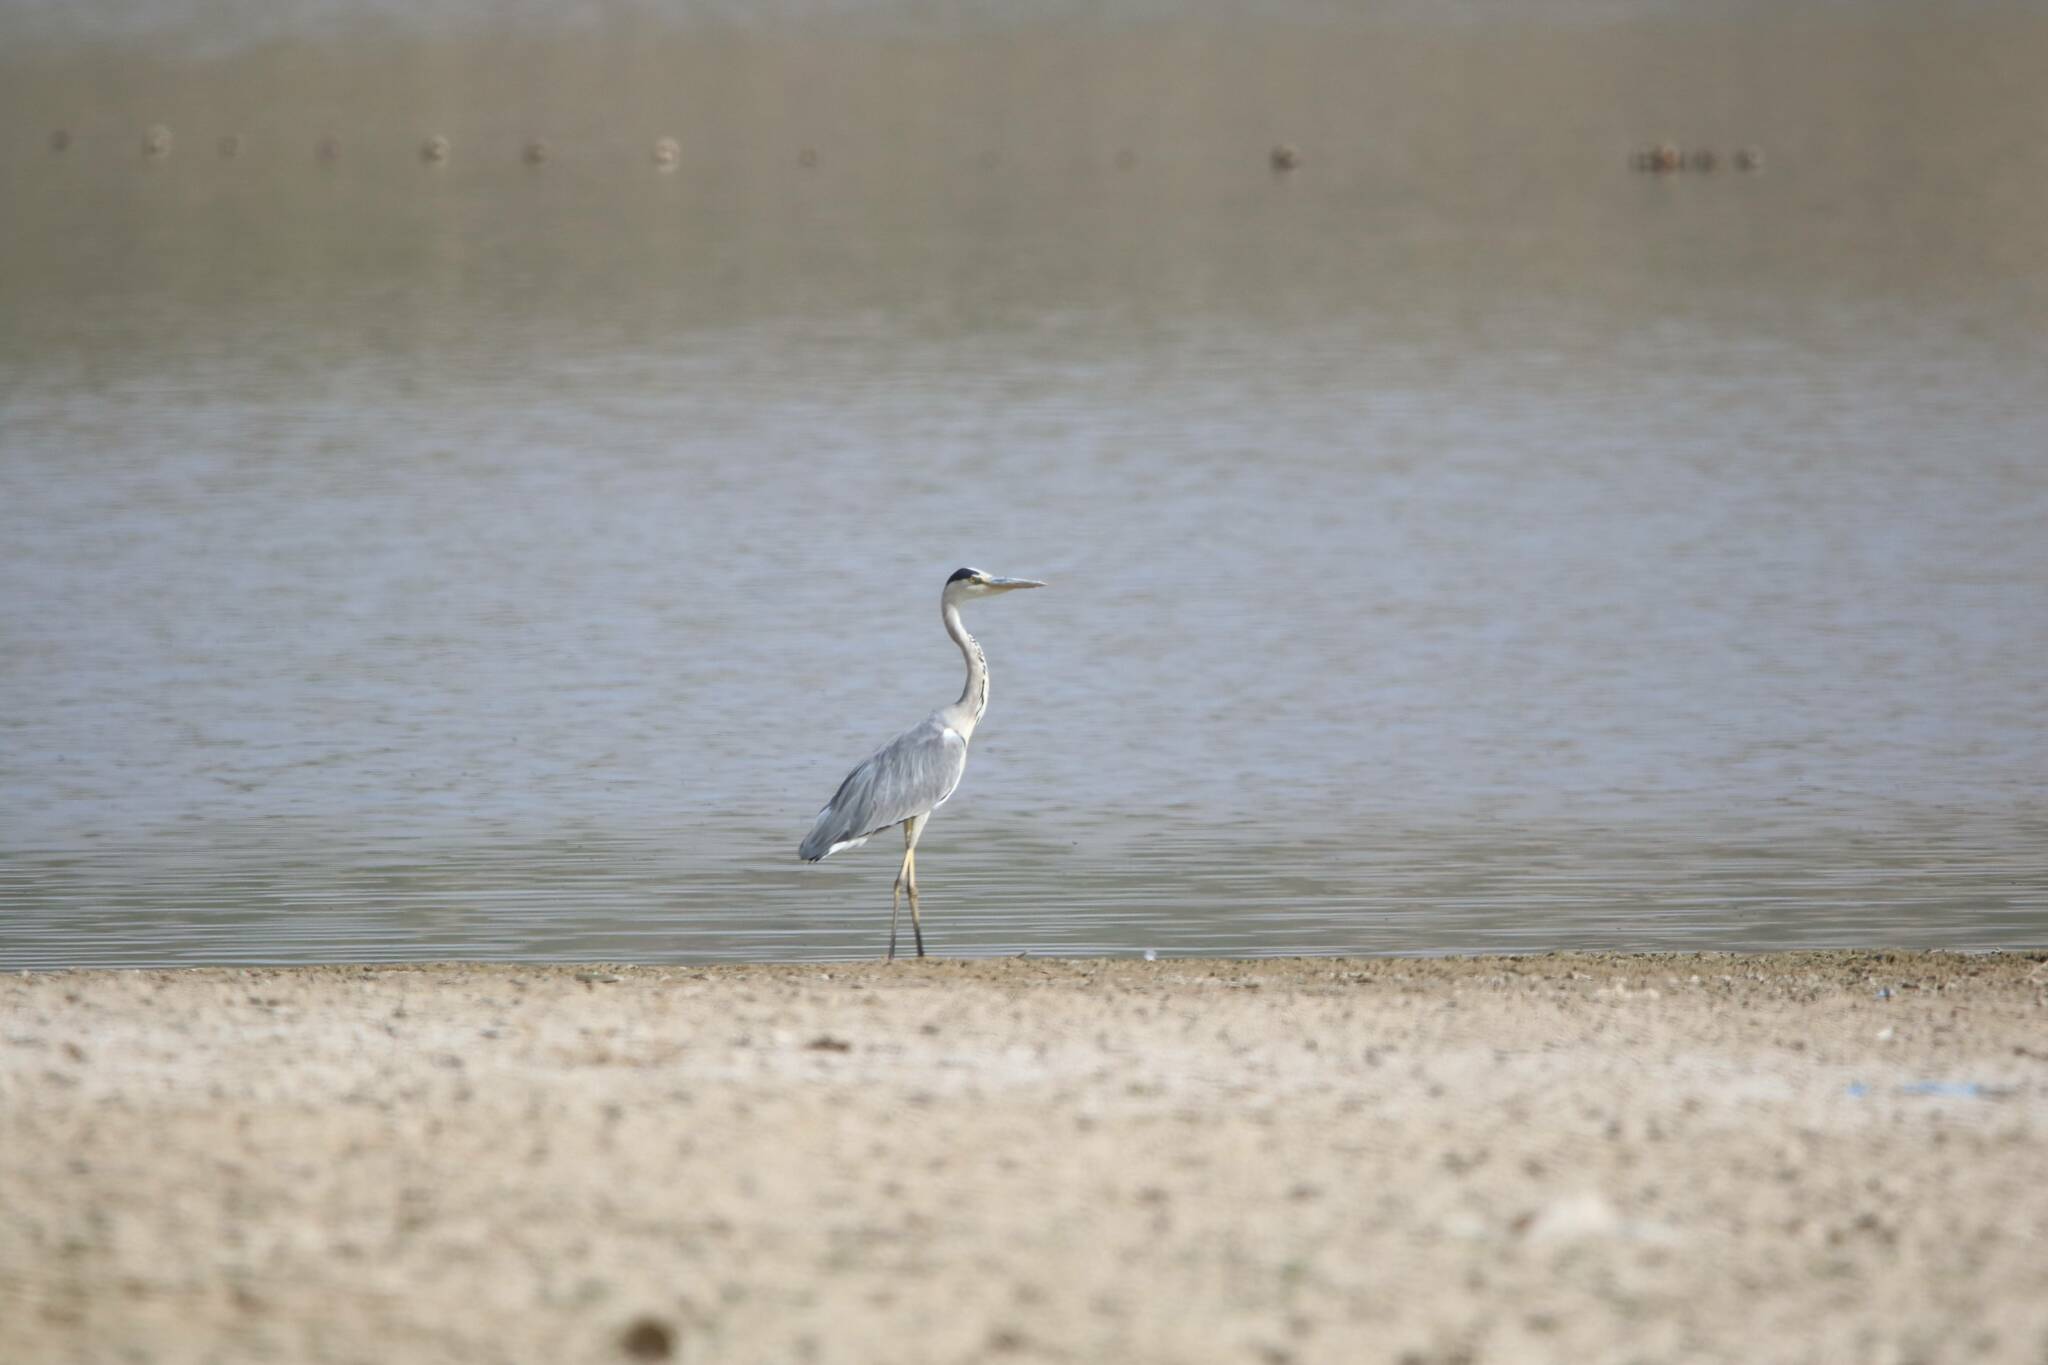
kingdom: Animalia
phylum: Chordata
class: Aves
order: Pelecaniformes
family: Ardeidae
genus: Ardea
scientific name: Ardea cinerea
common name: Grey heron
